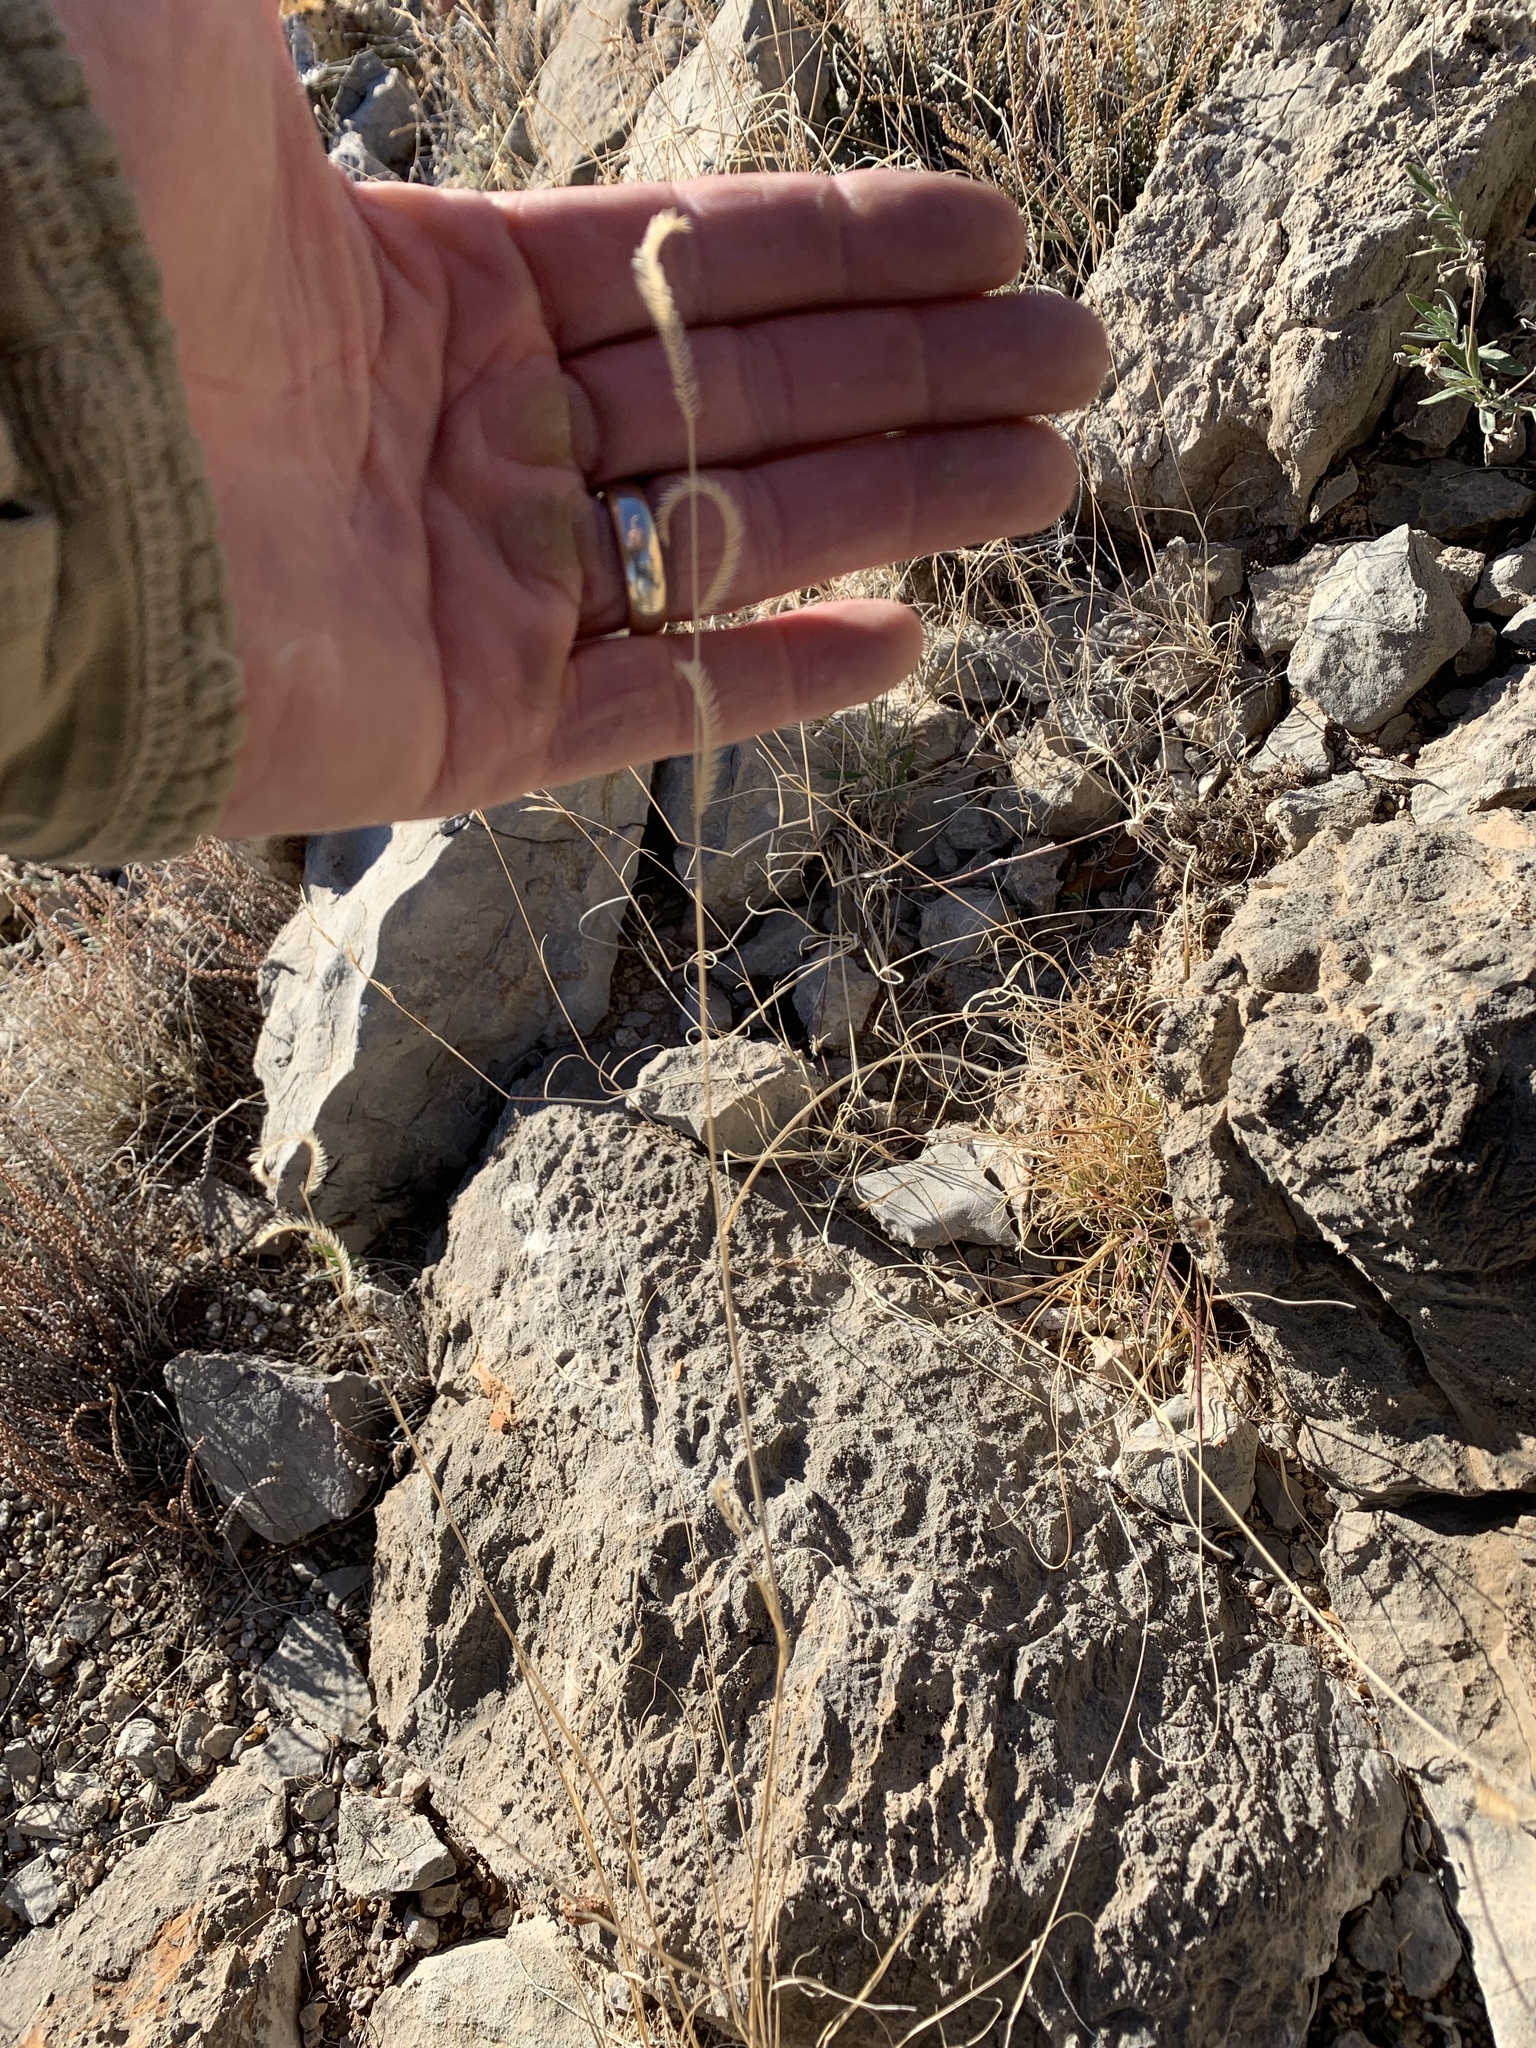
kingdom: Plantae
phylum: Tracheophyta
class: Liliopsida
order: Poales
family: Poaceae
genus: Bouteloua
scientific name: Bouteloua gracilis
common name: Blue grama
